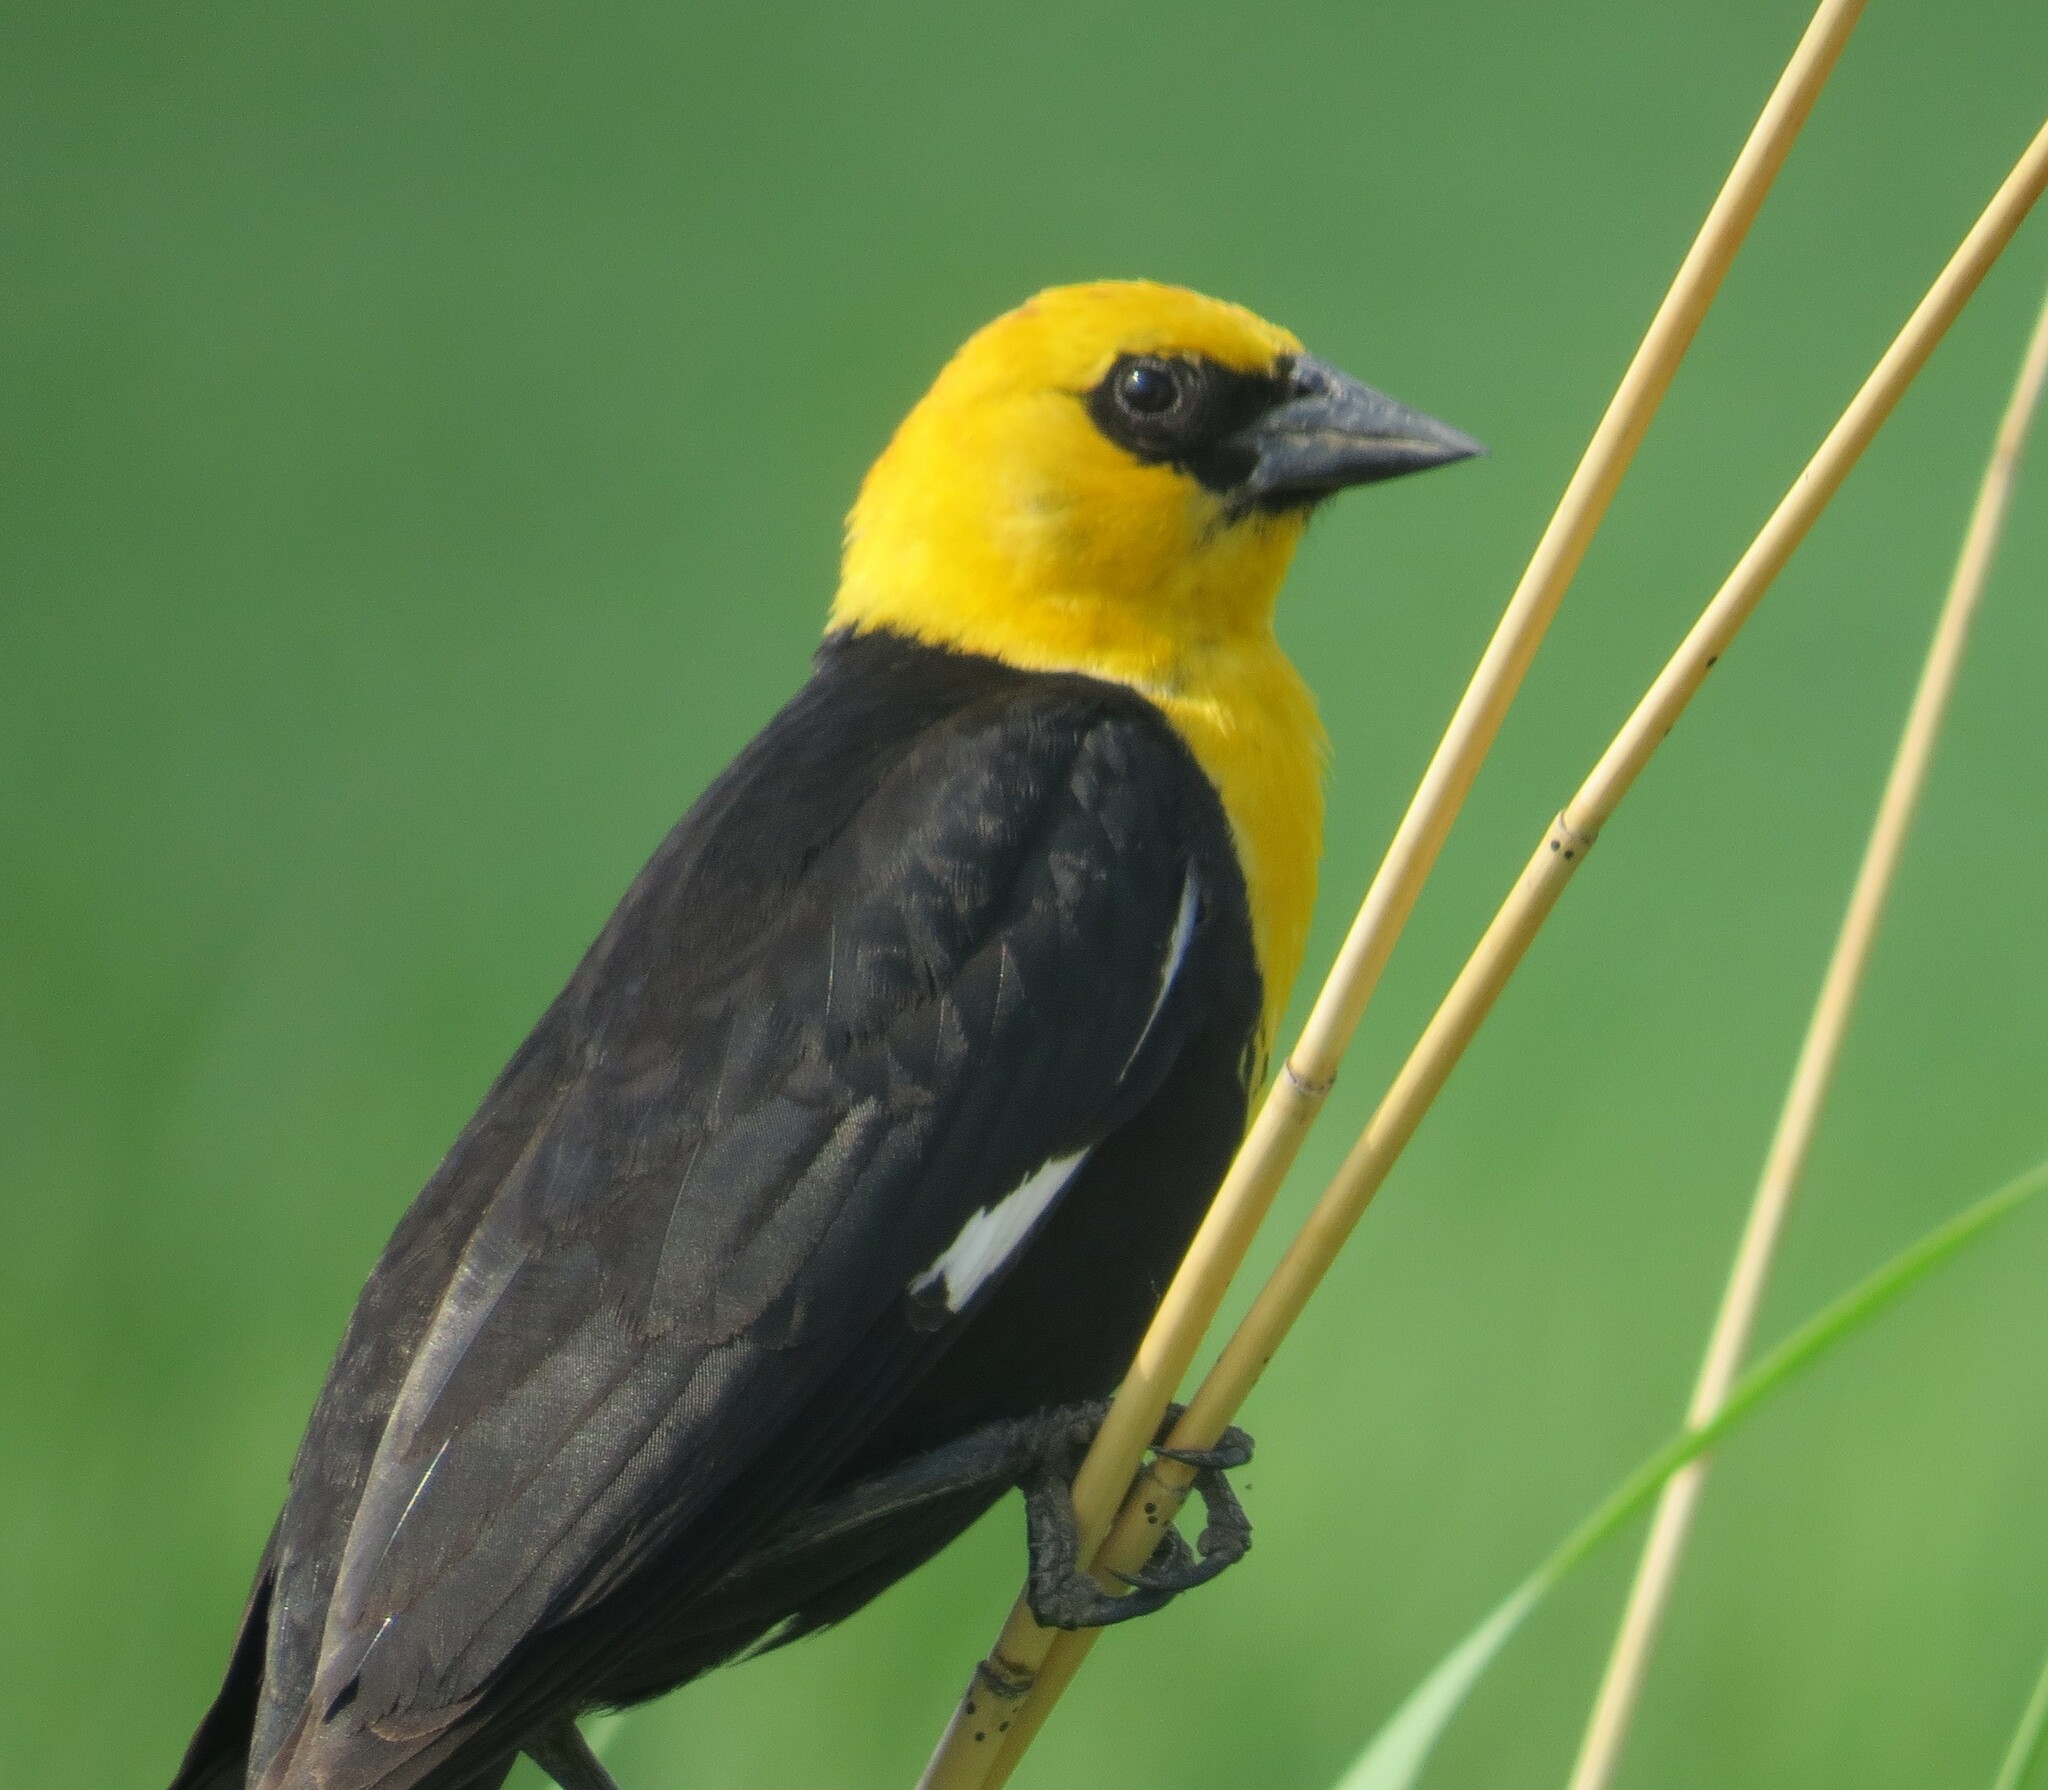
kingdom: Animalia
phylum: Chordata
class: Aves
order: Passeriformes
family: Icteridae
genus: Xanthocephalus
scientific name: Xanthocephalus xanthocephalus
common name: Yellow-headed blackbird
